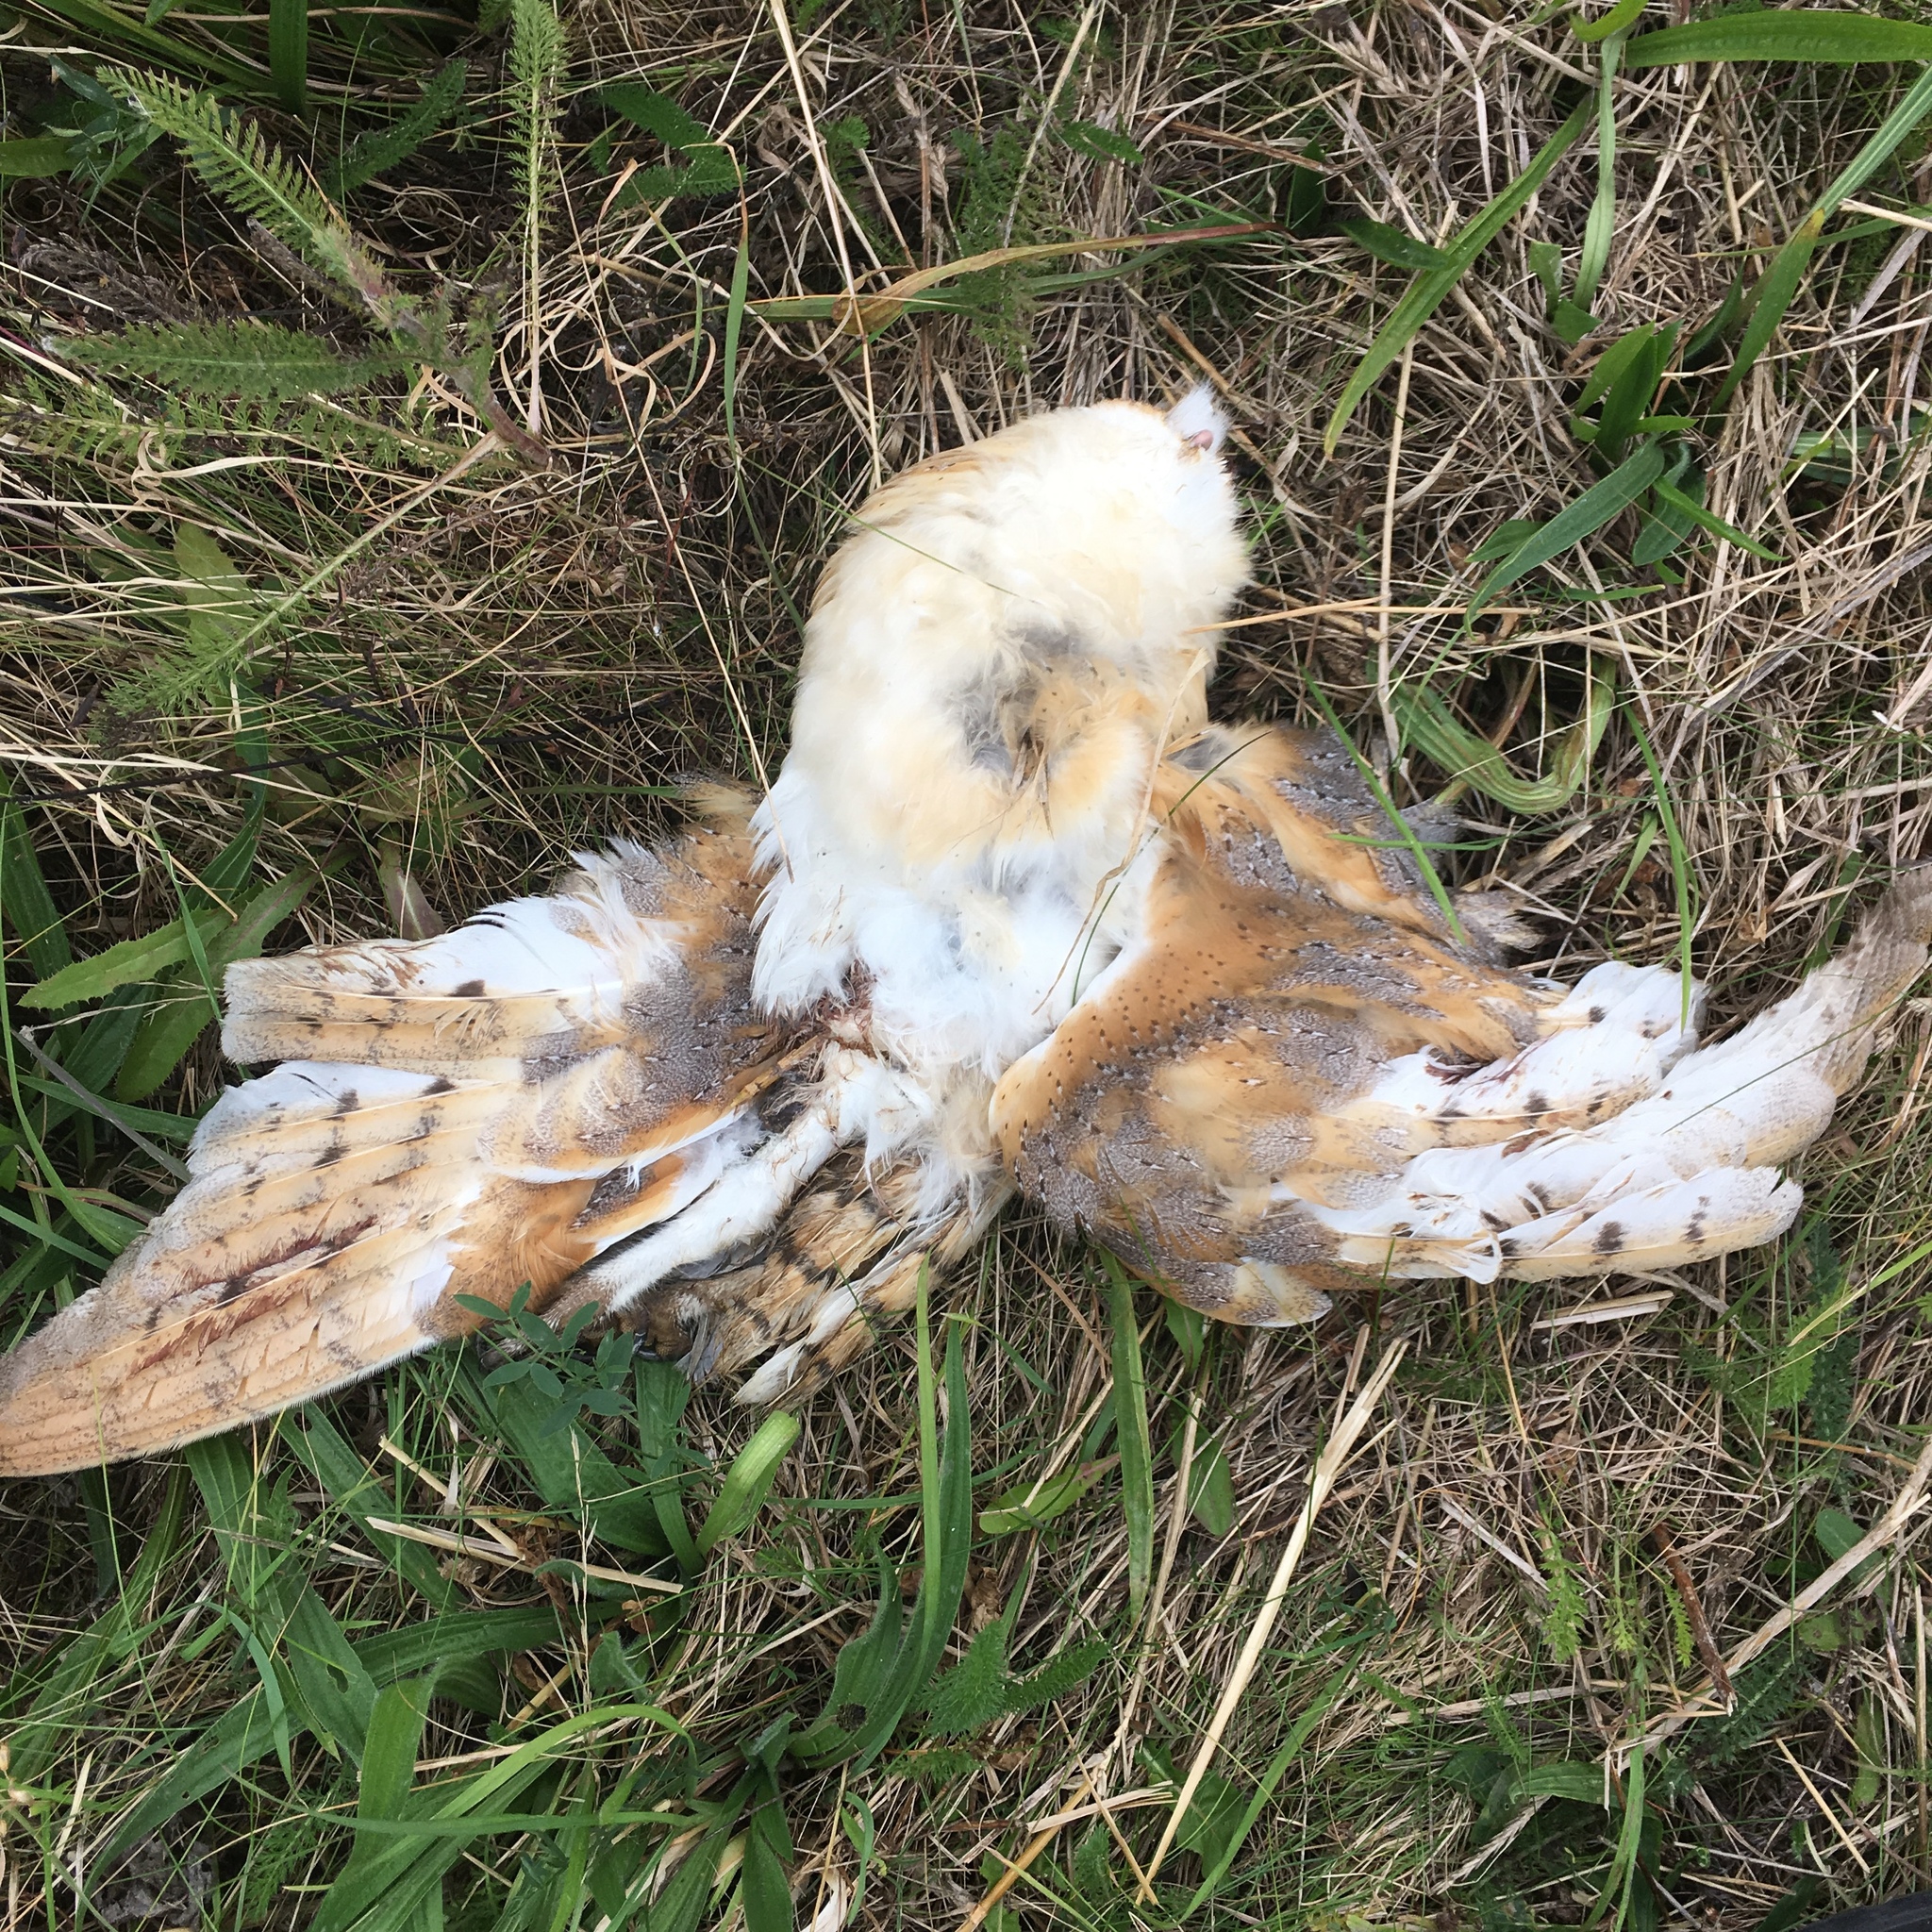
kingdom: Animalia
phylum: Chordata
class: Aves
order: Strigiformes
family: Tytonidae
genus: Tyto
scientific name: Tyto alba
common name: Barn owl
